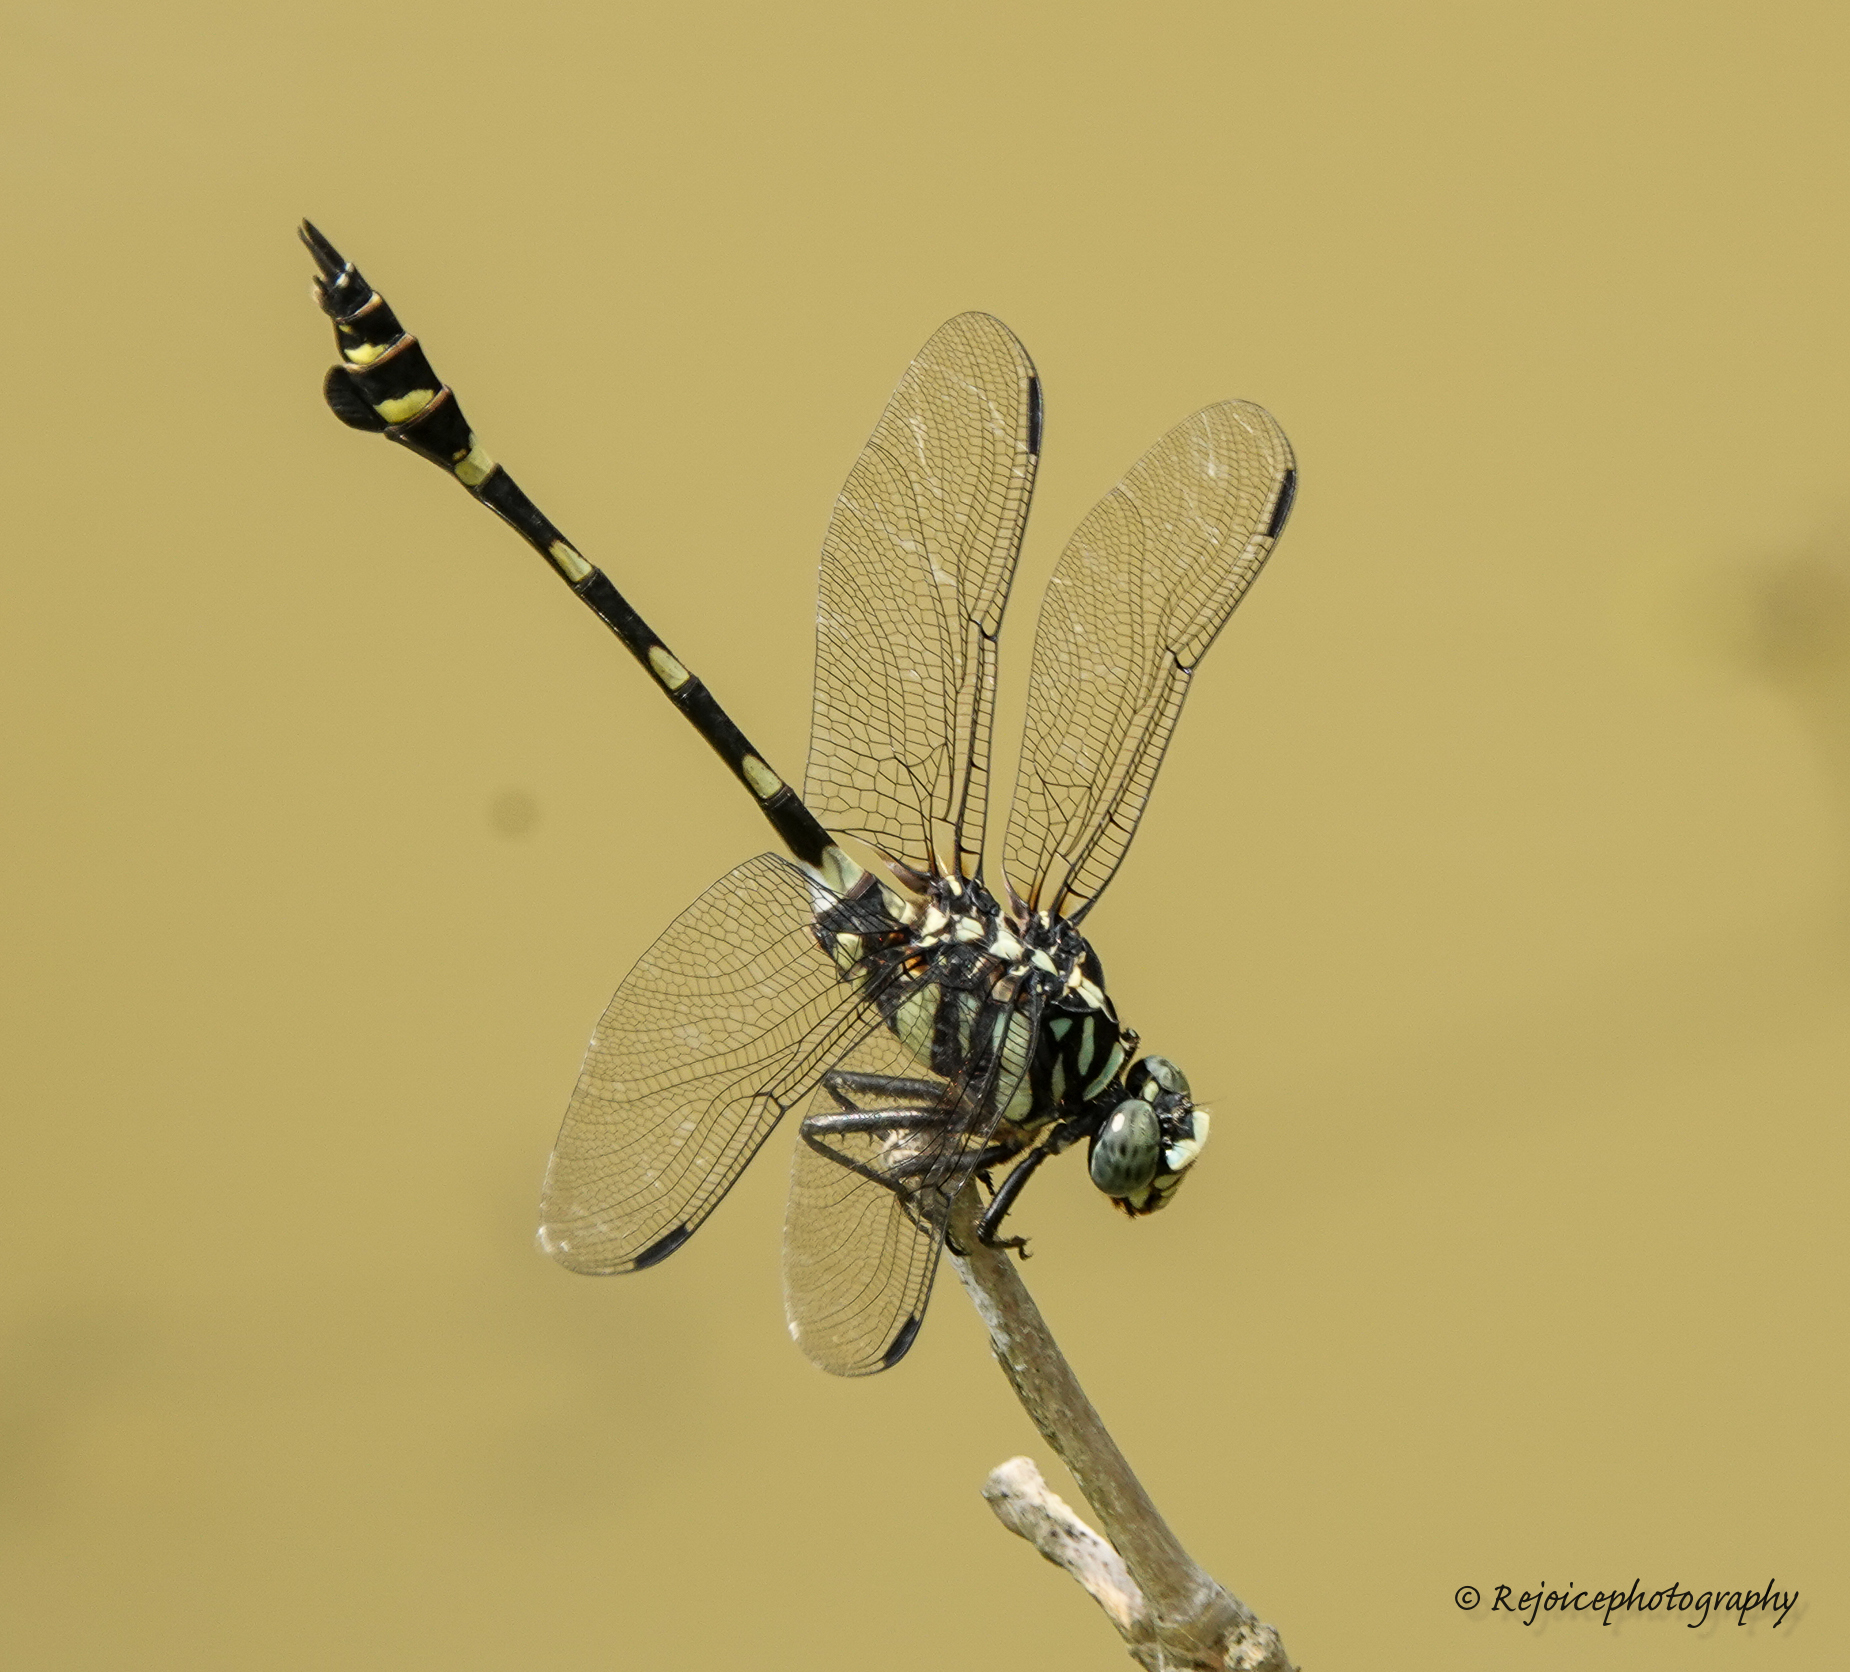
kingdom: Animalia
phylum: Arthropoda
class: Insecta
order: Odonata
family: Gomphidae
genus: Ictinogomphus
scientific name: Ictinogomphus rapax
